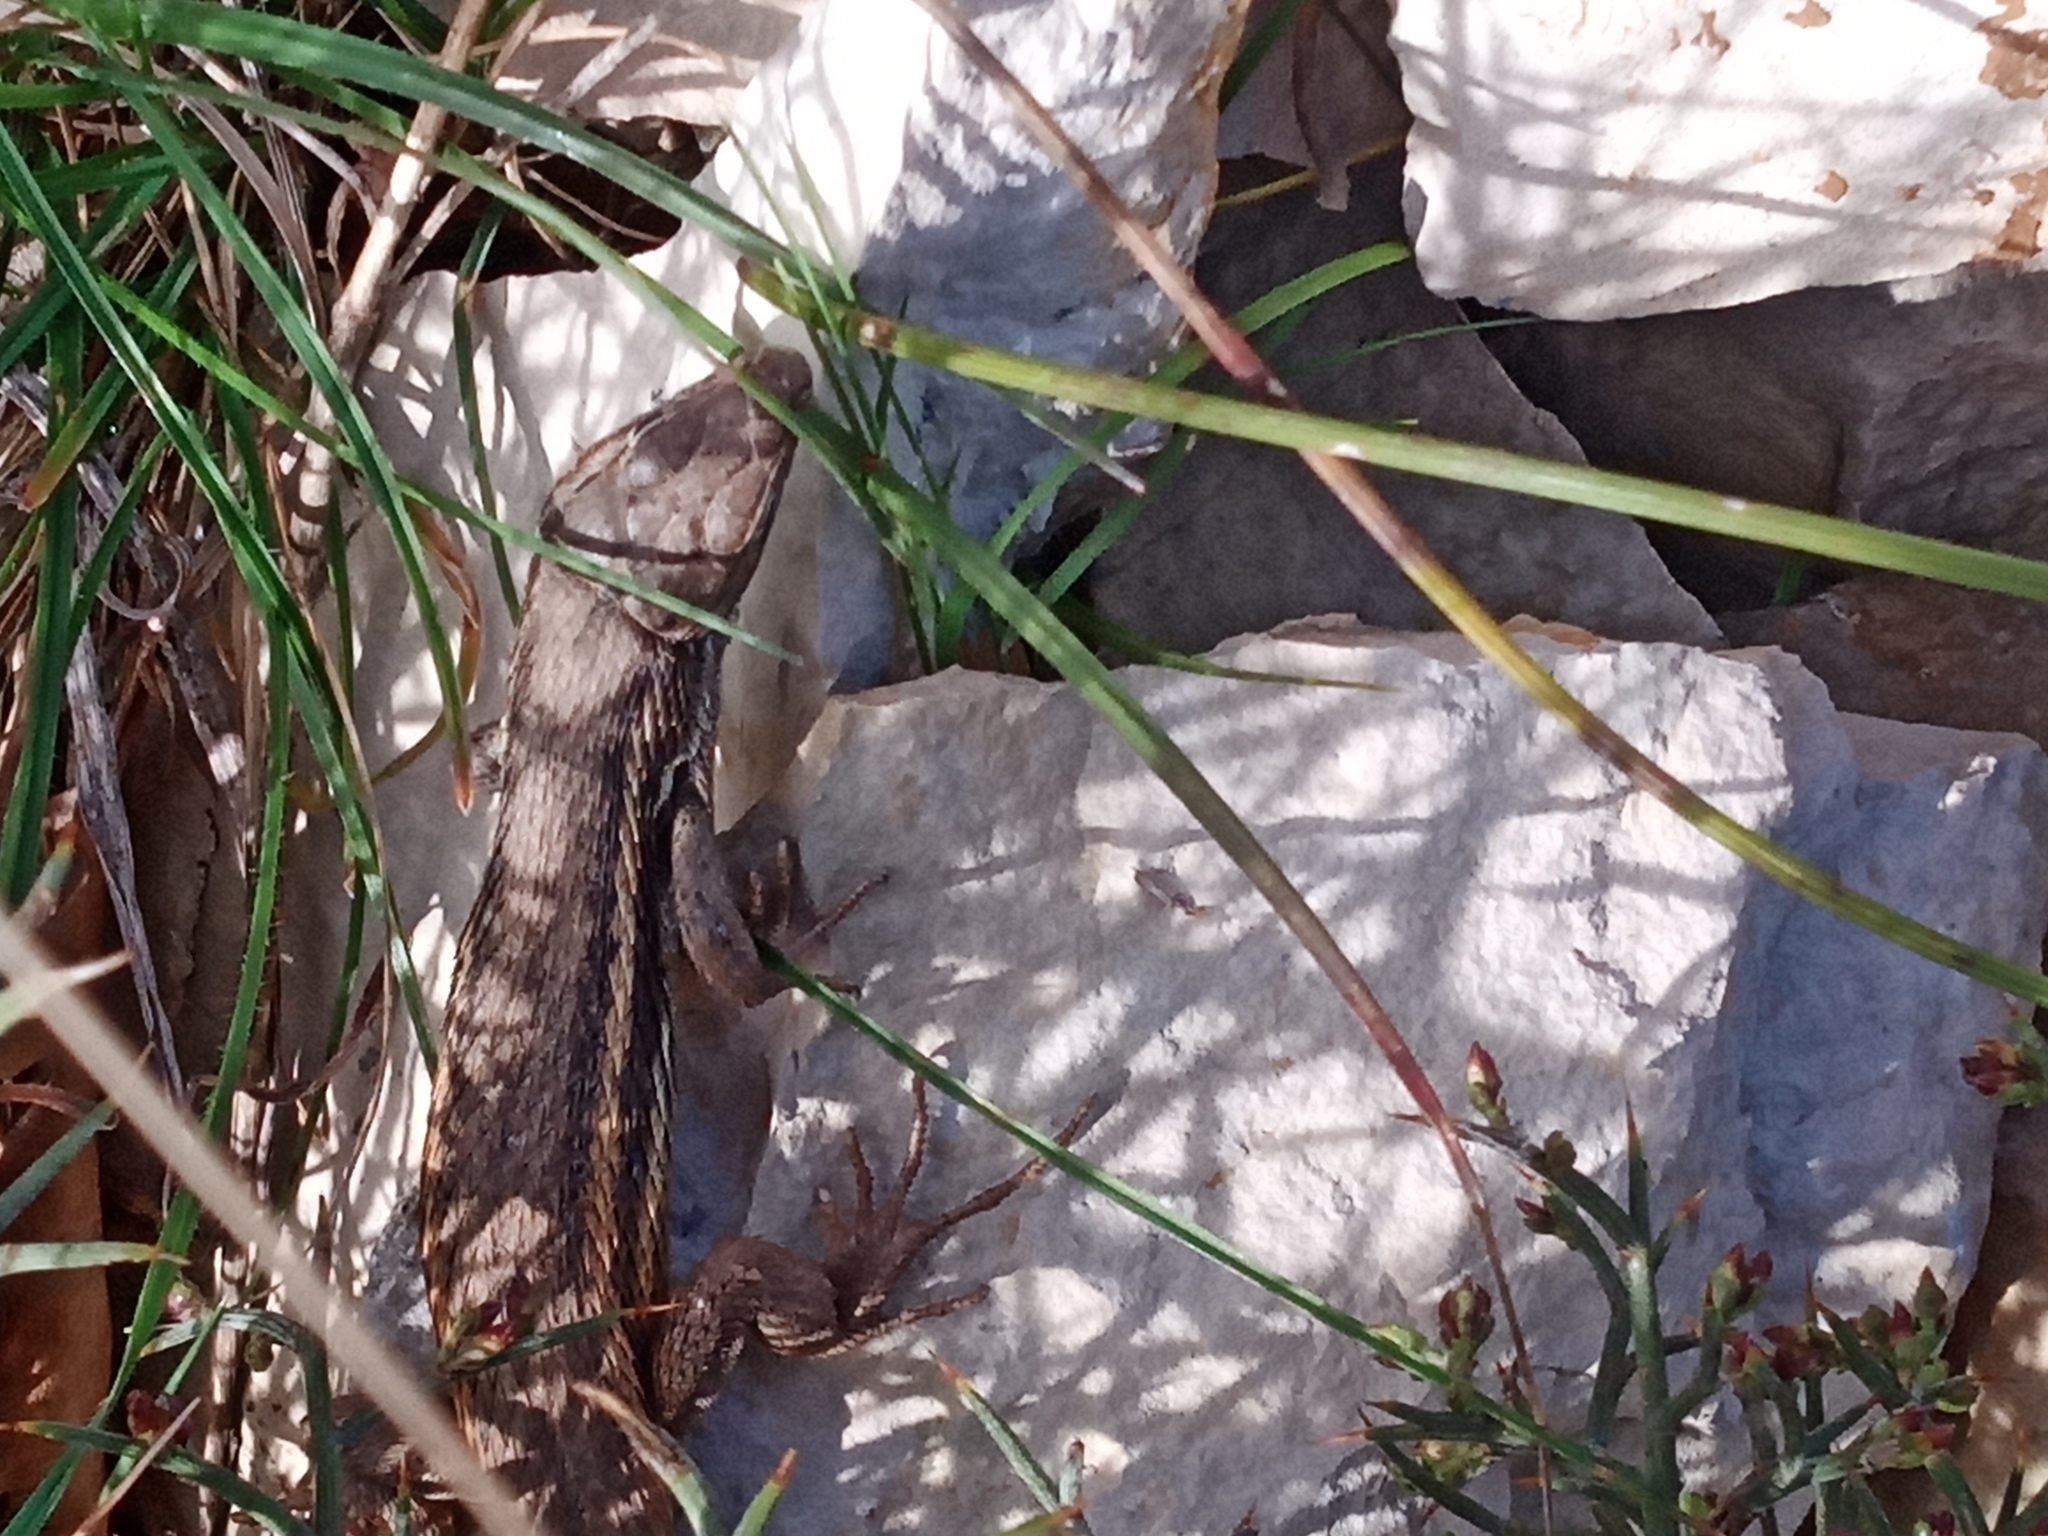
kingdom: Animalia
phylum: Chordata
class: Squamata
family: Lacertidae
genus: Psammodromus
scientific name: Psammodromus algirus
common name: Algerian psammodromus
